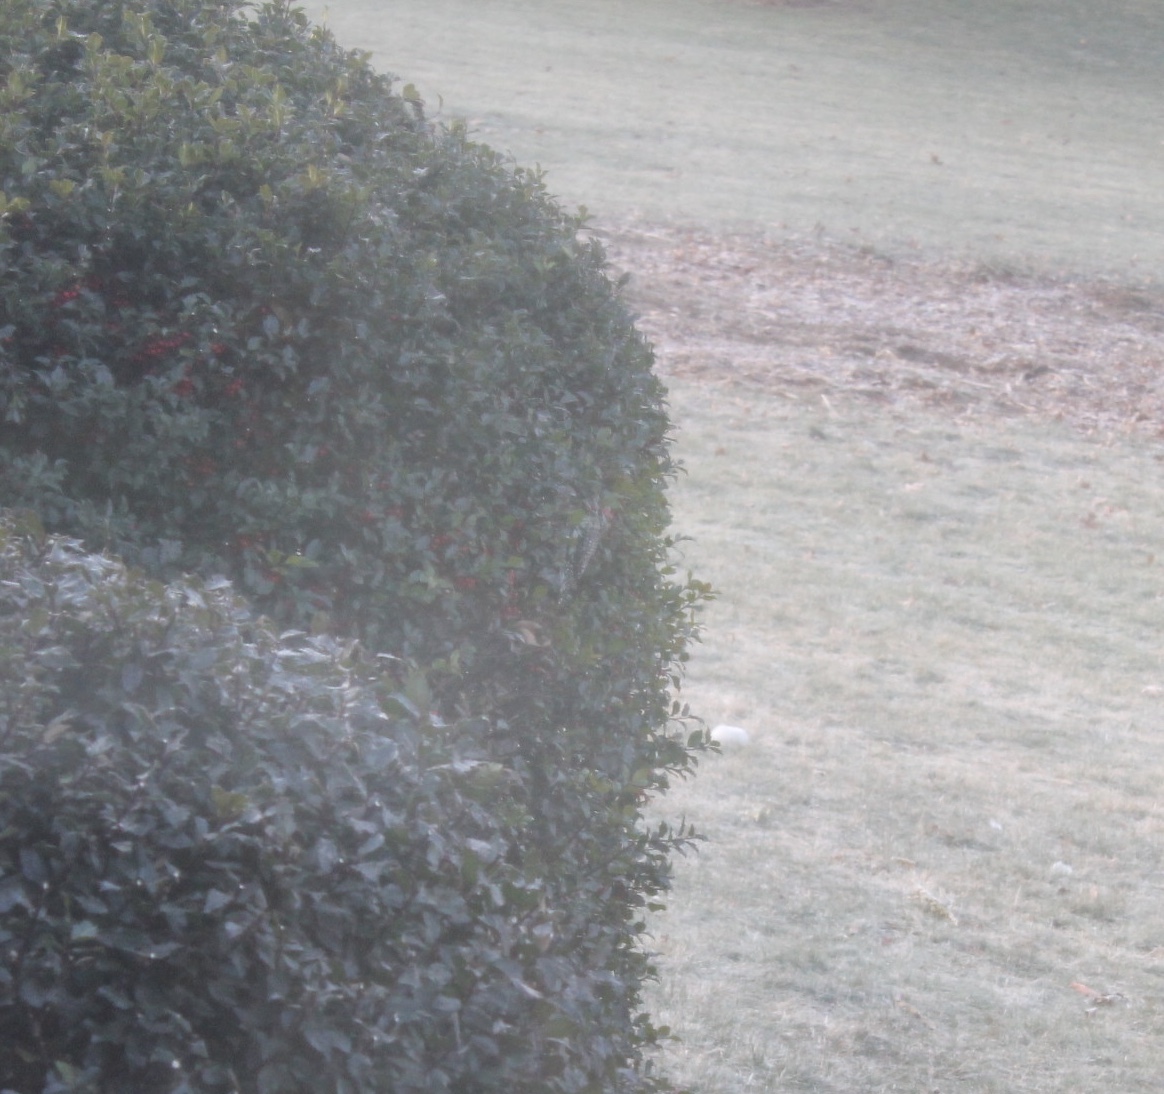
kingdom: Animalia
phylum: Chordata
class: Aves
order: Piciformes
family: Picidae
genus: Sphyrapicus
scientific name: Sphyrapicus varius
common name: Yellow-bellied sapsucker
